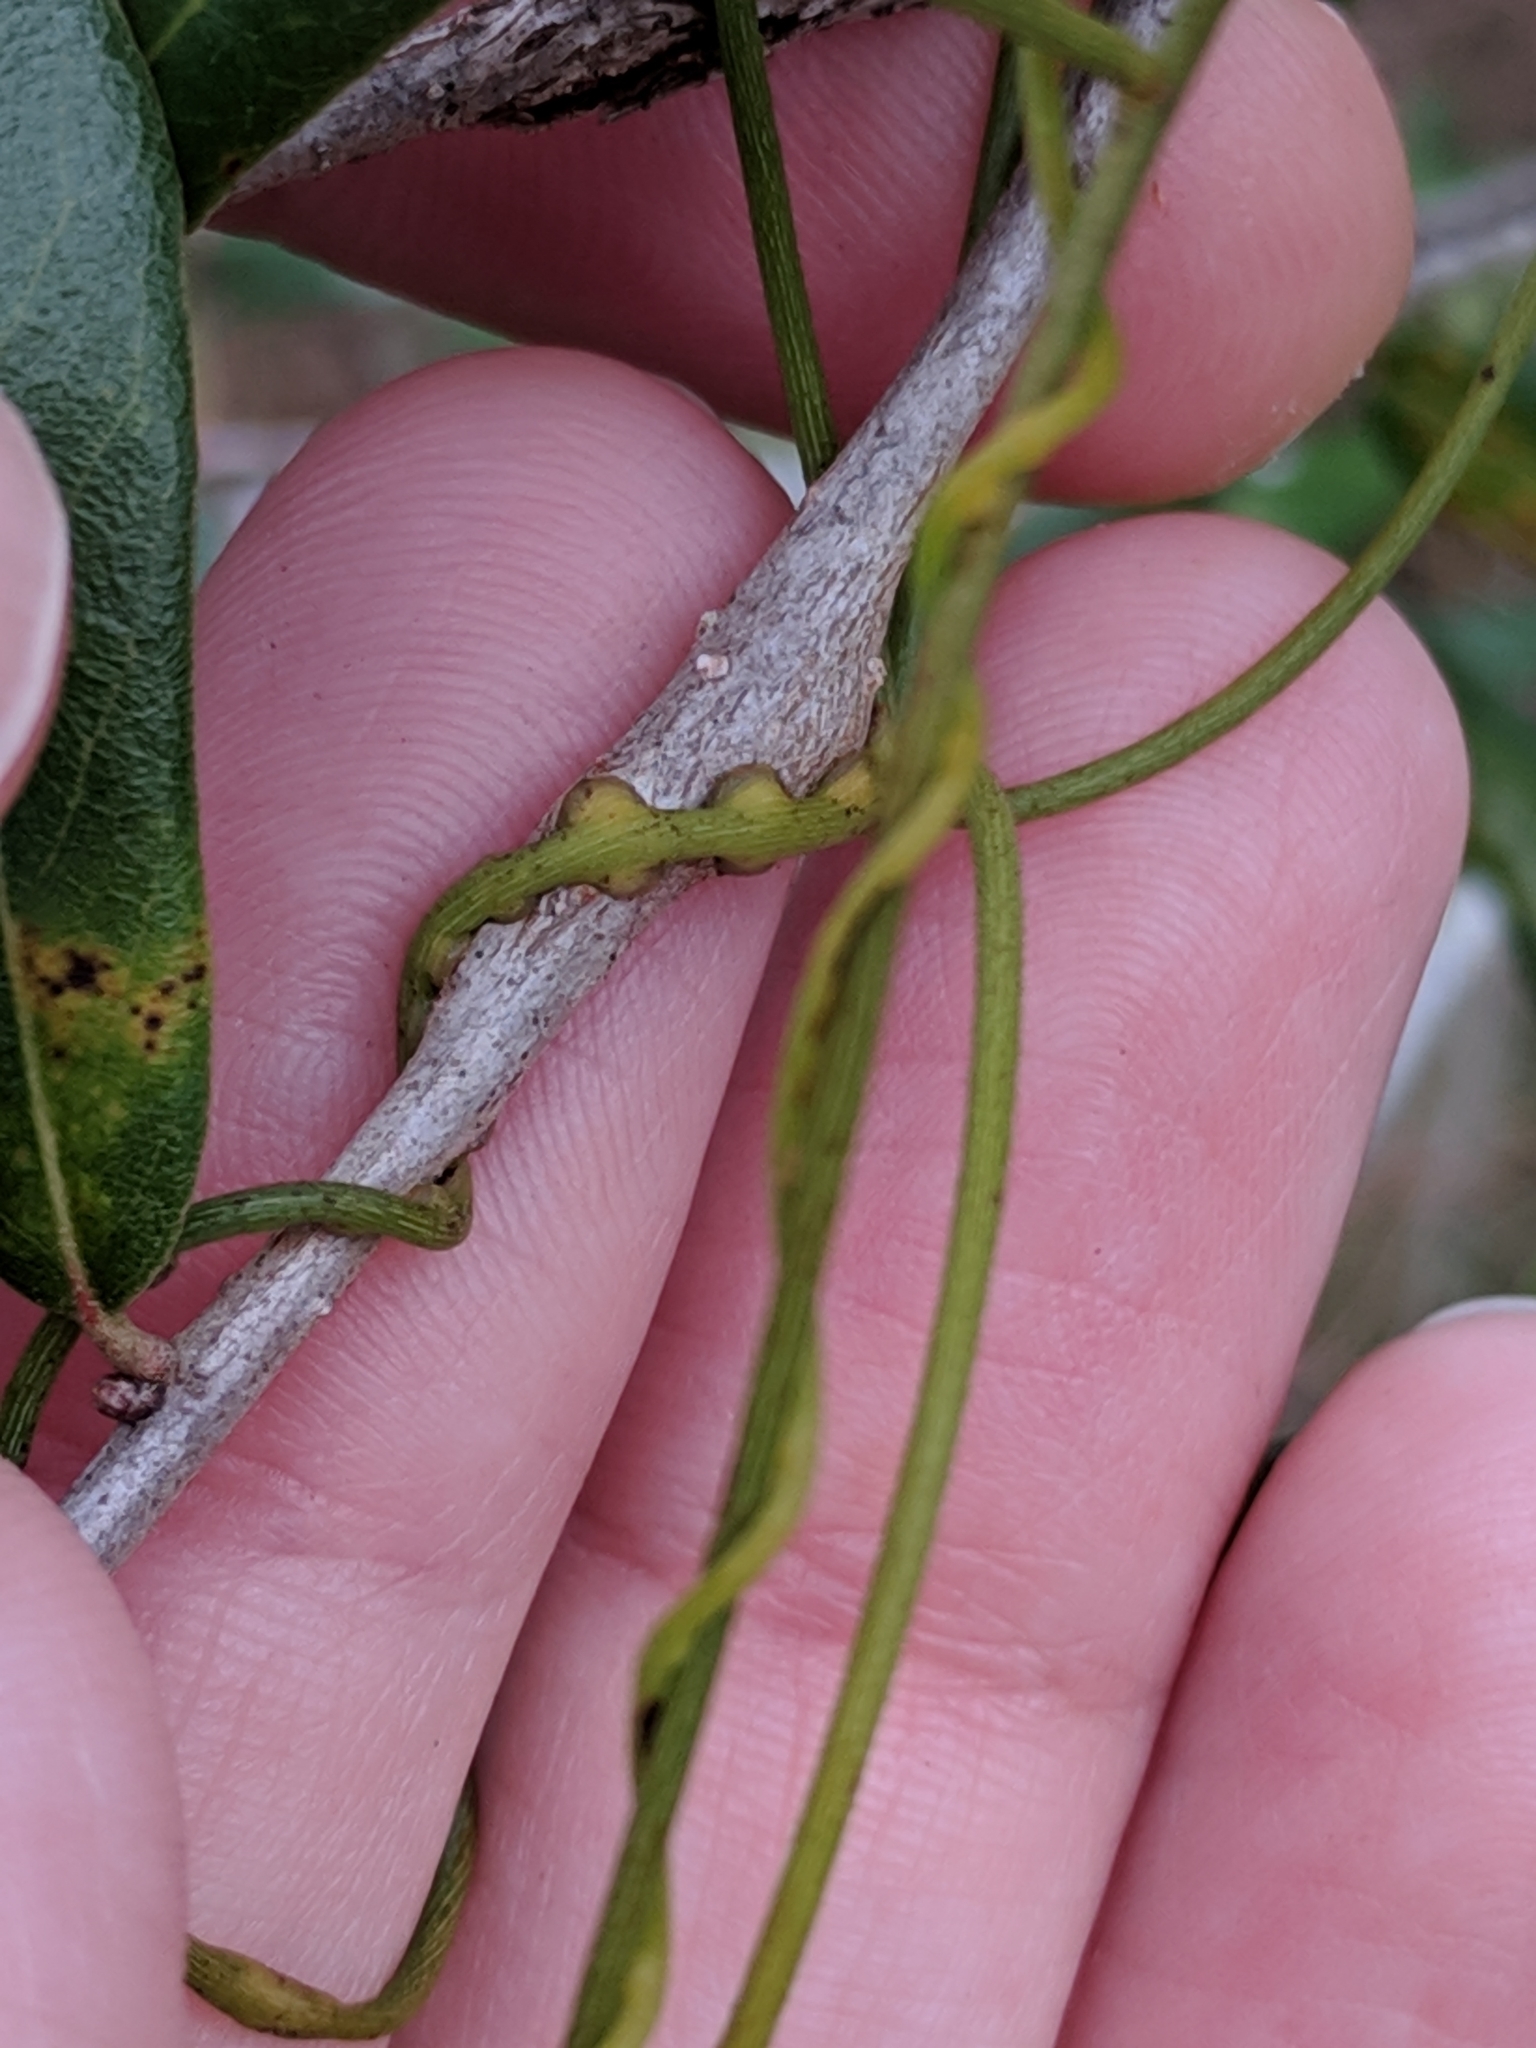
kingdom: Plantae
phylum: Tracheophyta
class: Magnoliopsida
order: Laurales
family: Lauraceae
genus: Cassytha
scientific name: Cassytha filiformis
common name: Dodder-laurel
